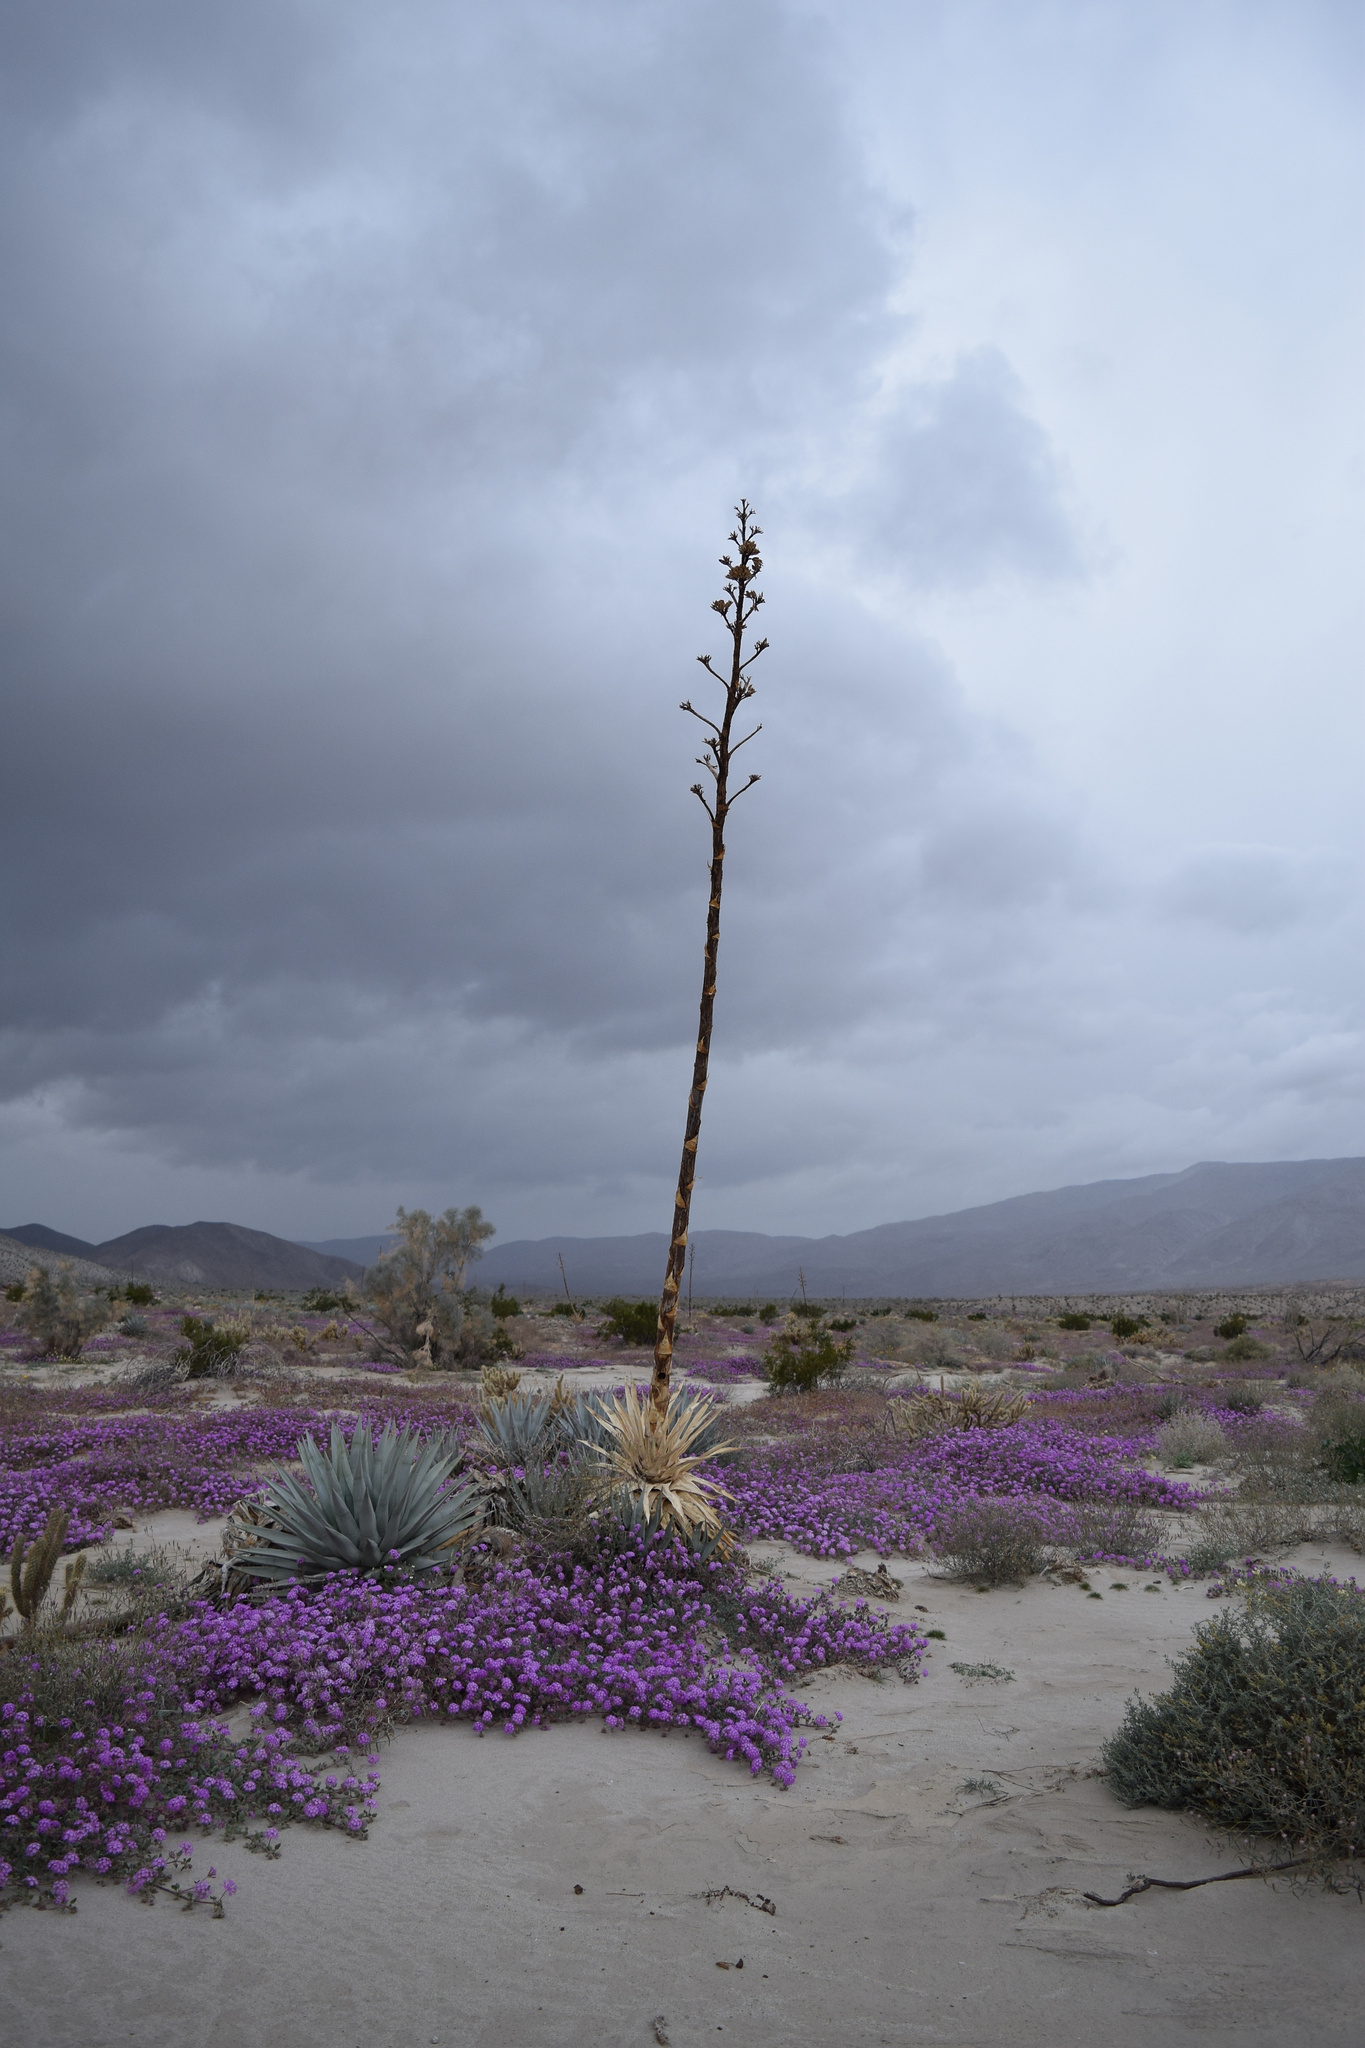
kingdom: Plantae
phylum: Tracheophyta
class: Liliopsida
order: Asparagales
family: Asparagaceae
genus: Agave
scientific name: Agave deserti
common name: Desert agave
